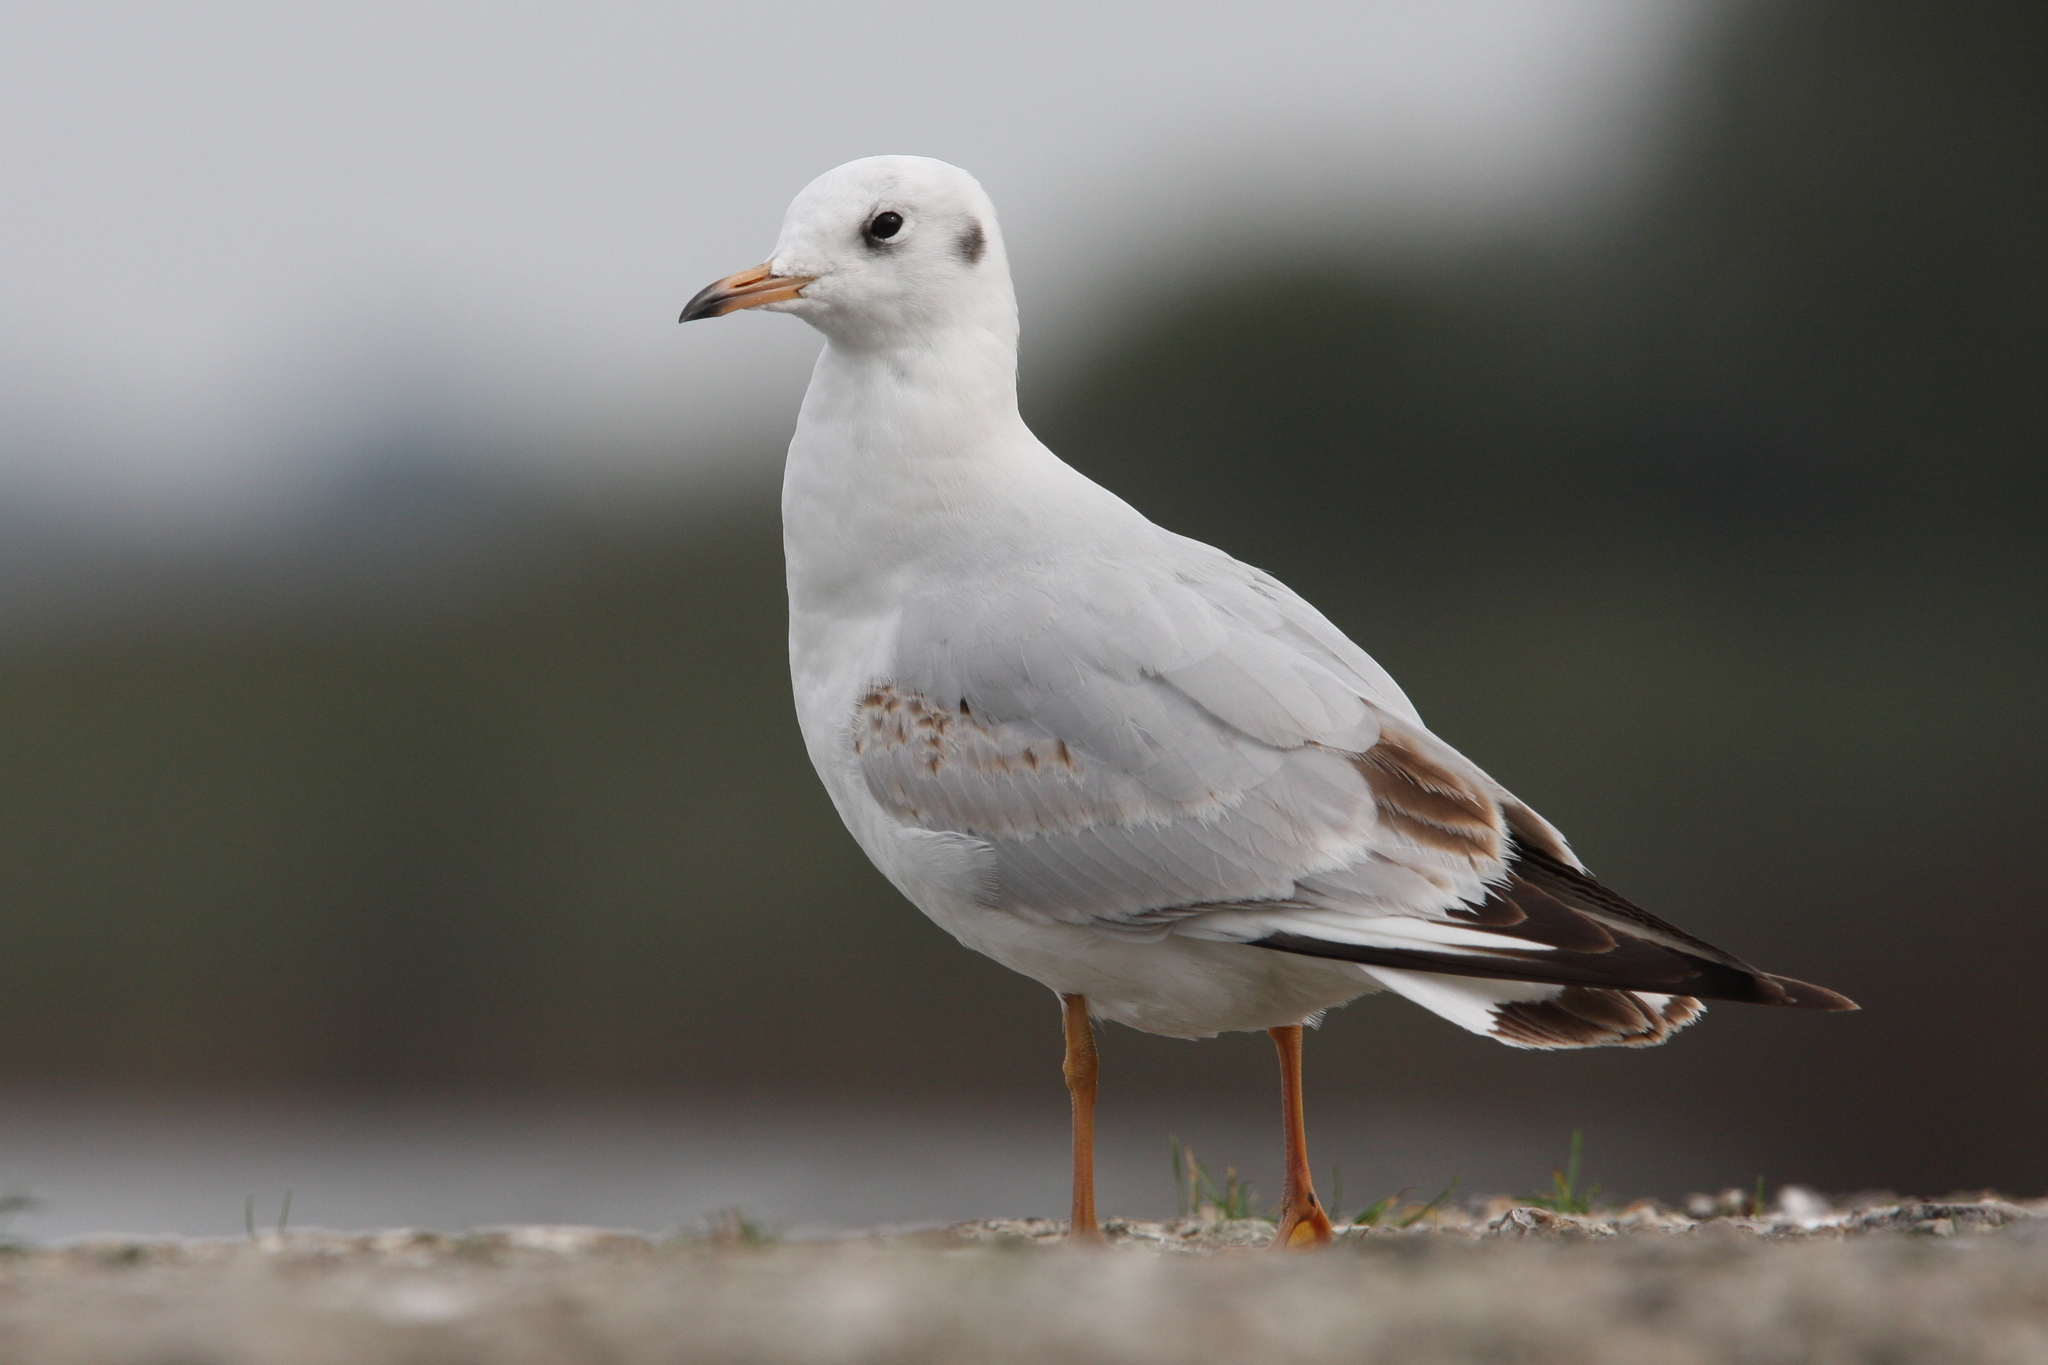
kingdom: Animalia
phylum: Chordata
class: Aves
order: Charadriiformes
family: Laridae
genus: Chroicocephalus
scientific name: Chroicocephalus ridibundus
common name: Black-headed gull
